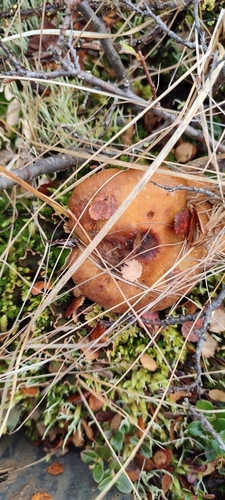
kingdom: Fungi
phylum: Basidiomycota
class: Agaricomycetes
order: Agaricales
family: Cortinariaceae
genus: Cortinarius
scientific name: Cortinarius
